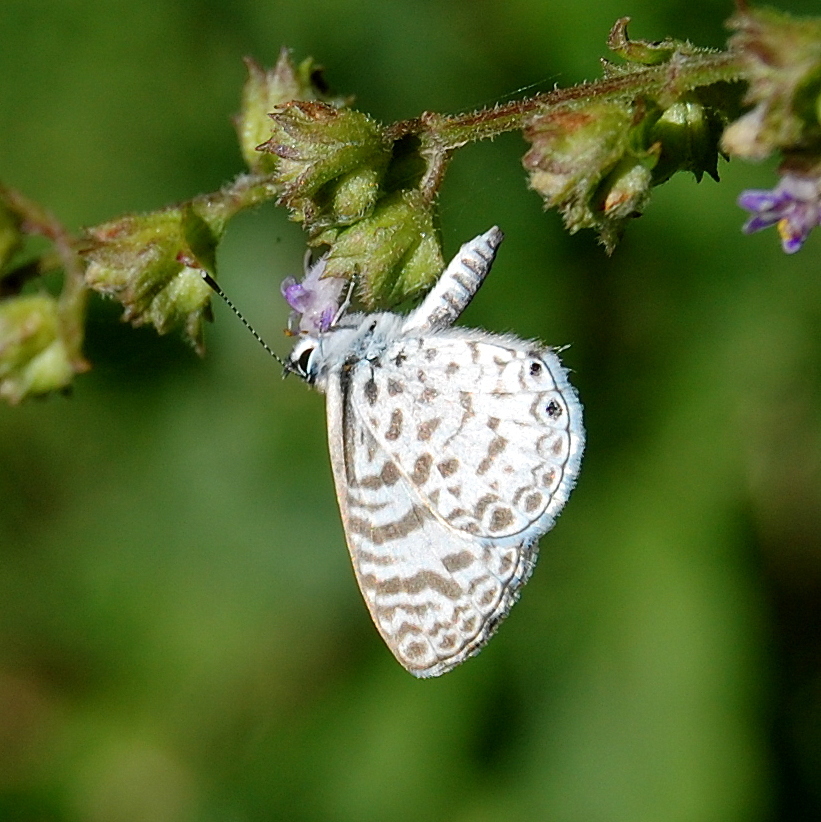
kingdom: Animalia
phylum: Arthropoda
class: Insecta
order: Lepidoptera
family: Lycaenidae
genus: Leptotes
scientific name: Leptotes cassius
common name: Cassius blue
